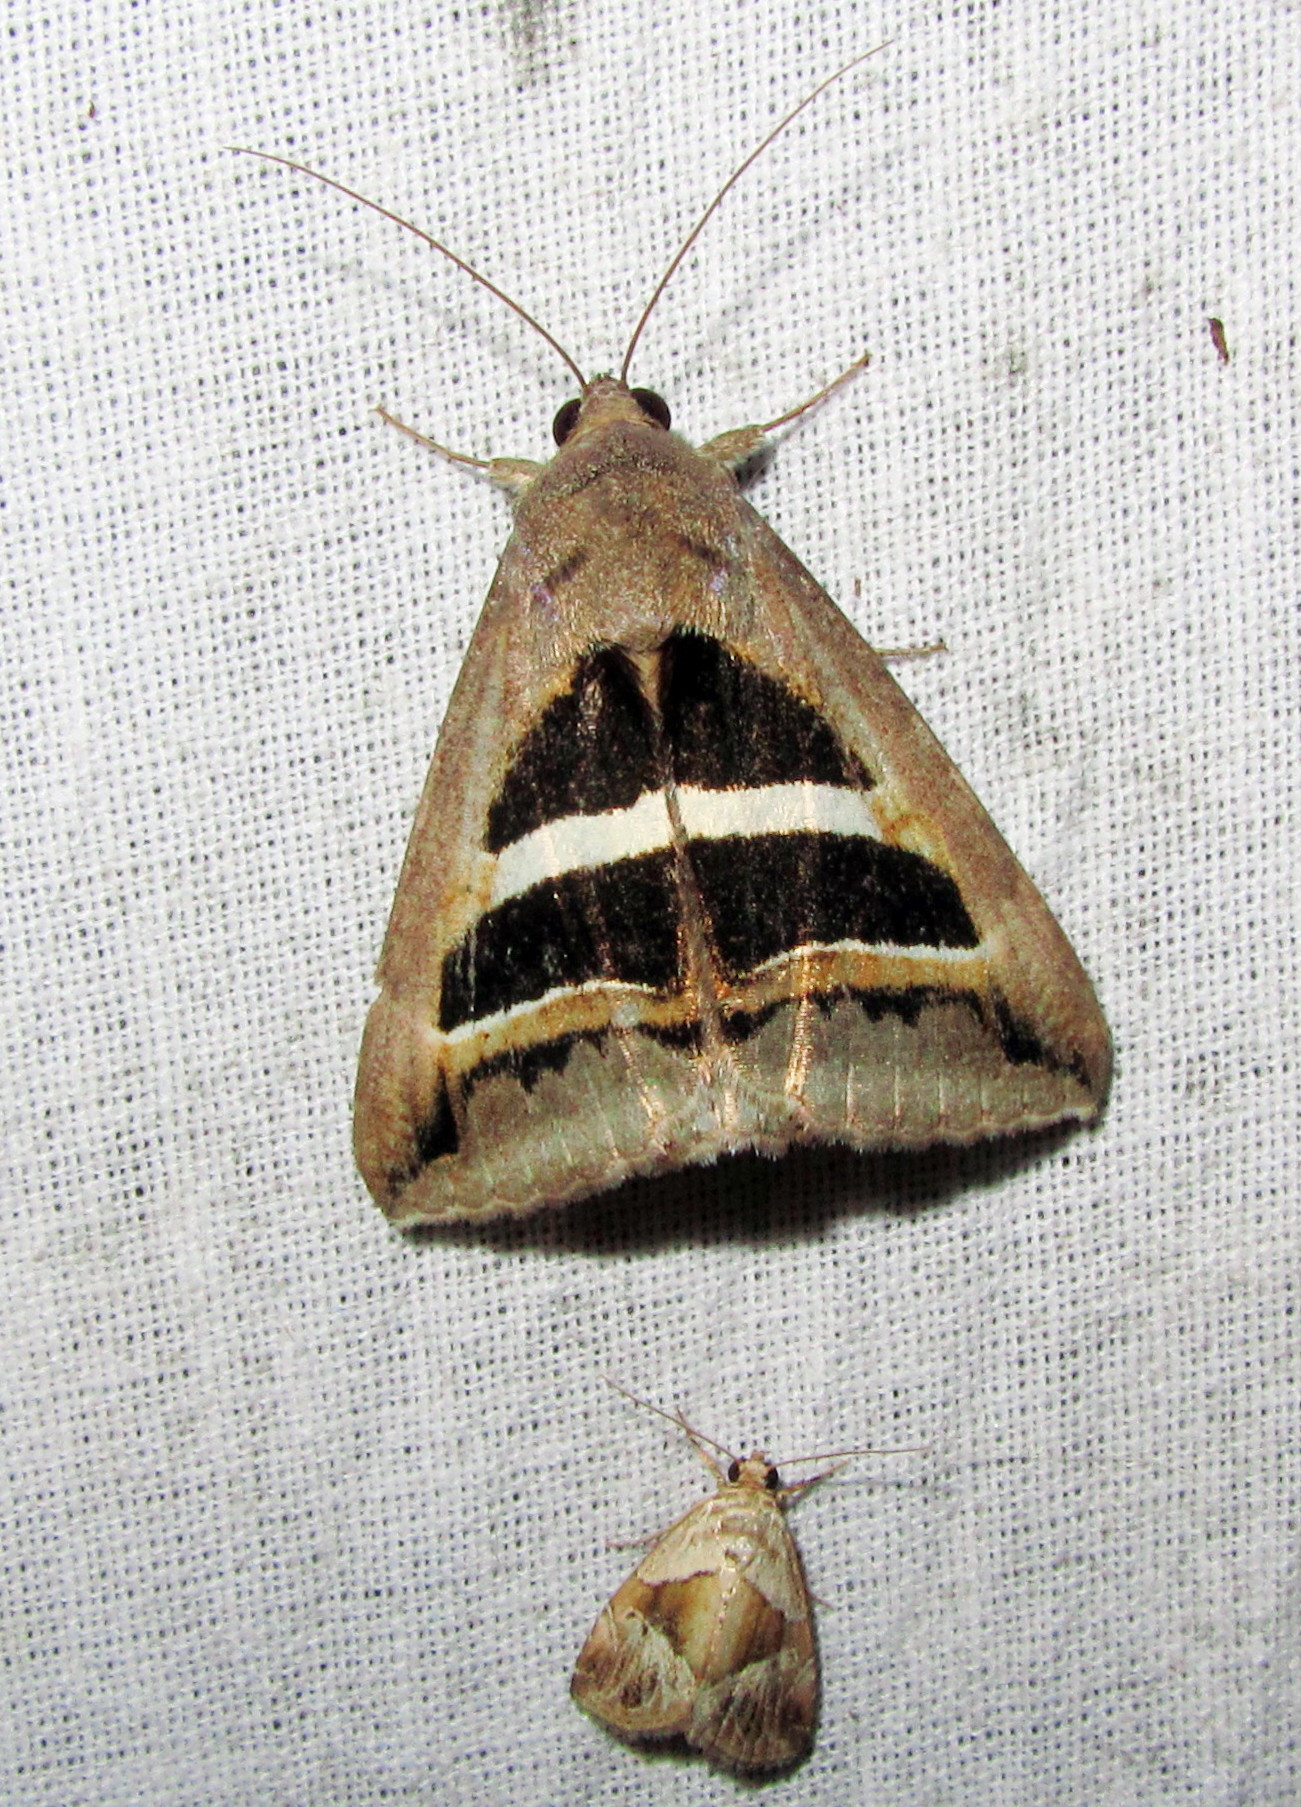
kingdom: Animalia
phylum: Arthropoda
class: Insecta
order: Lepidoptera
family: Erebidae
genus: Grammodes
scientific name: Grammodes geometrica
